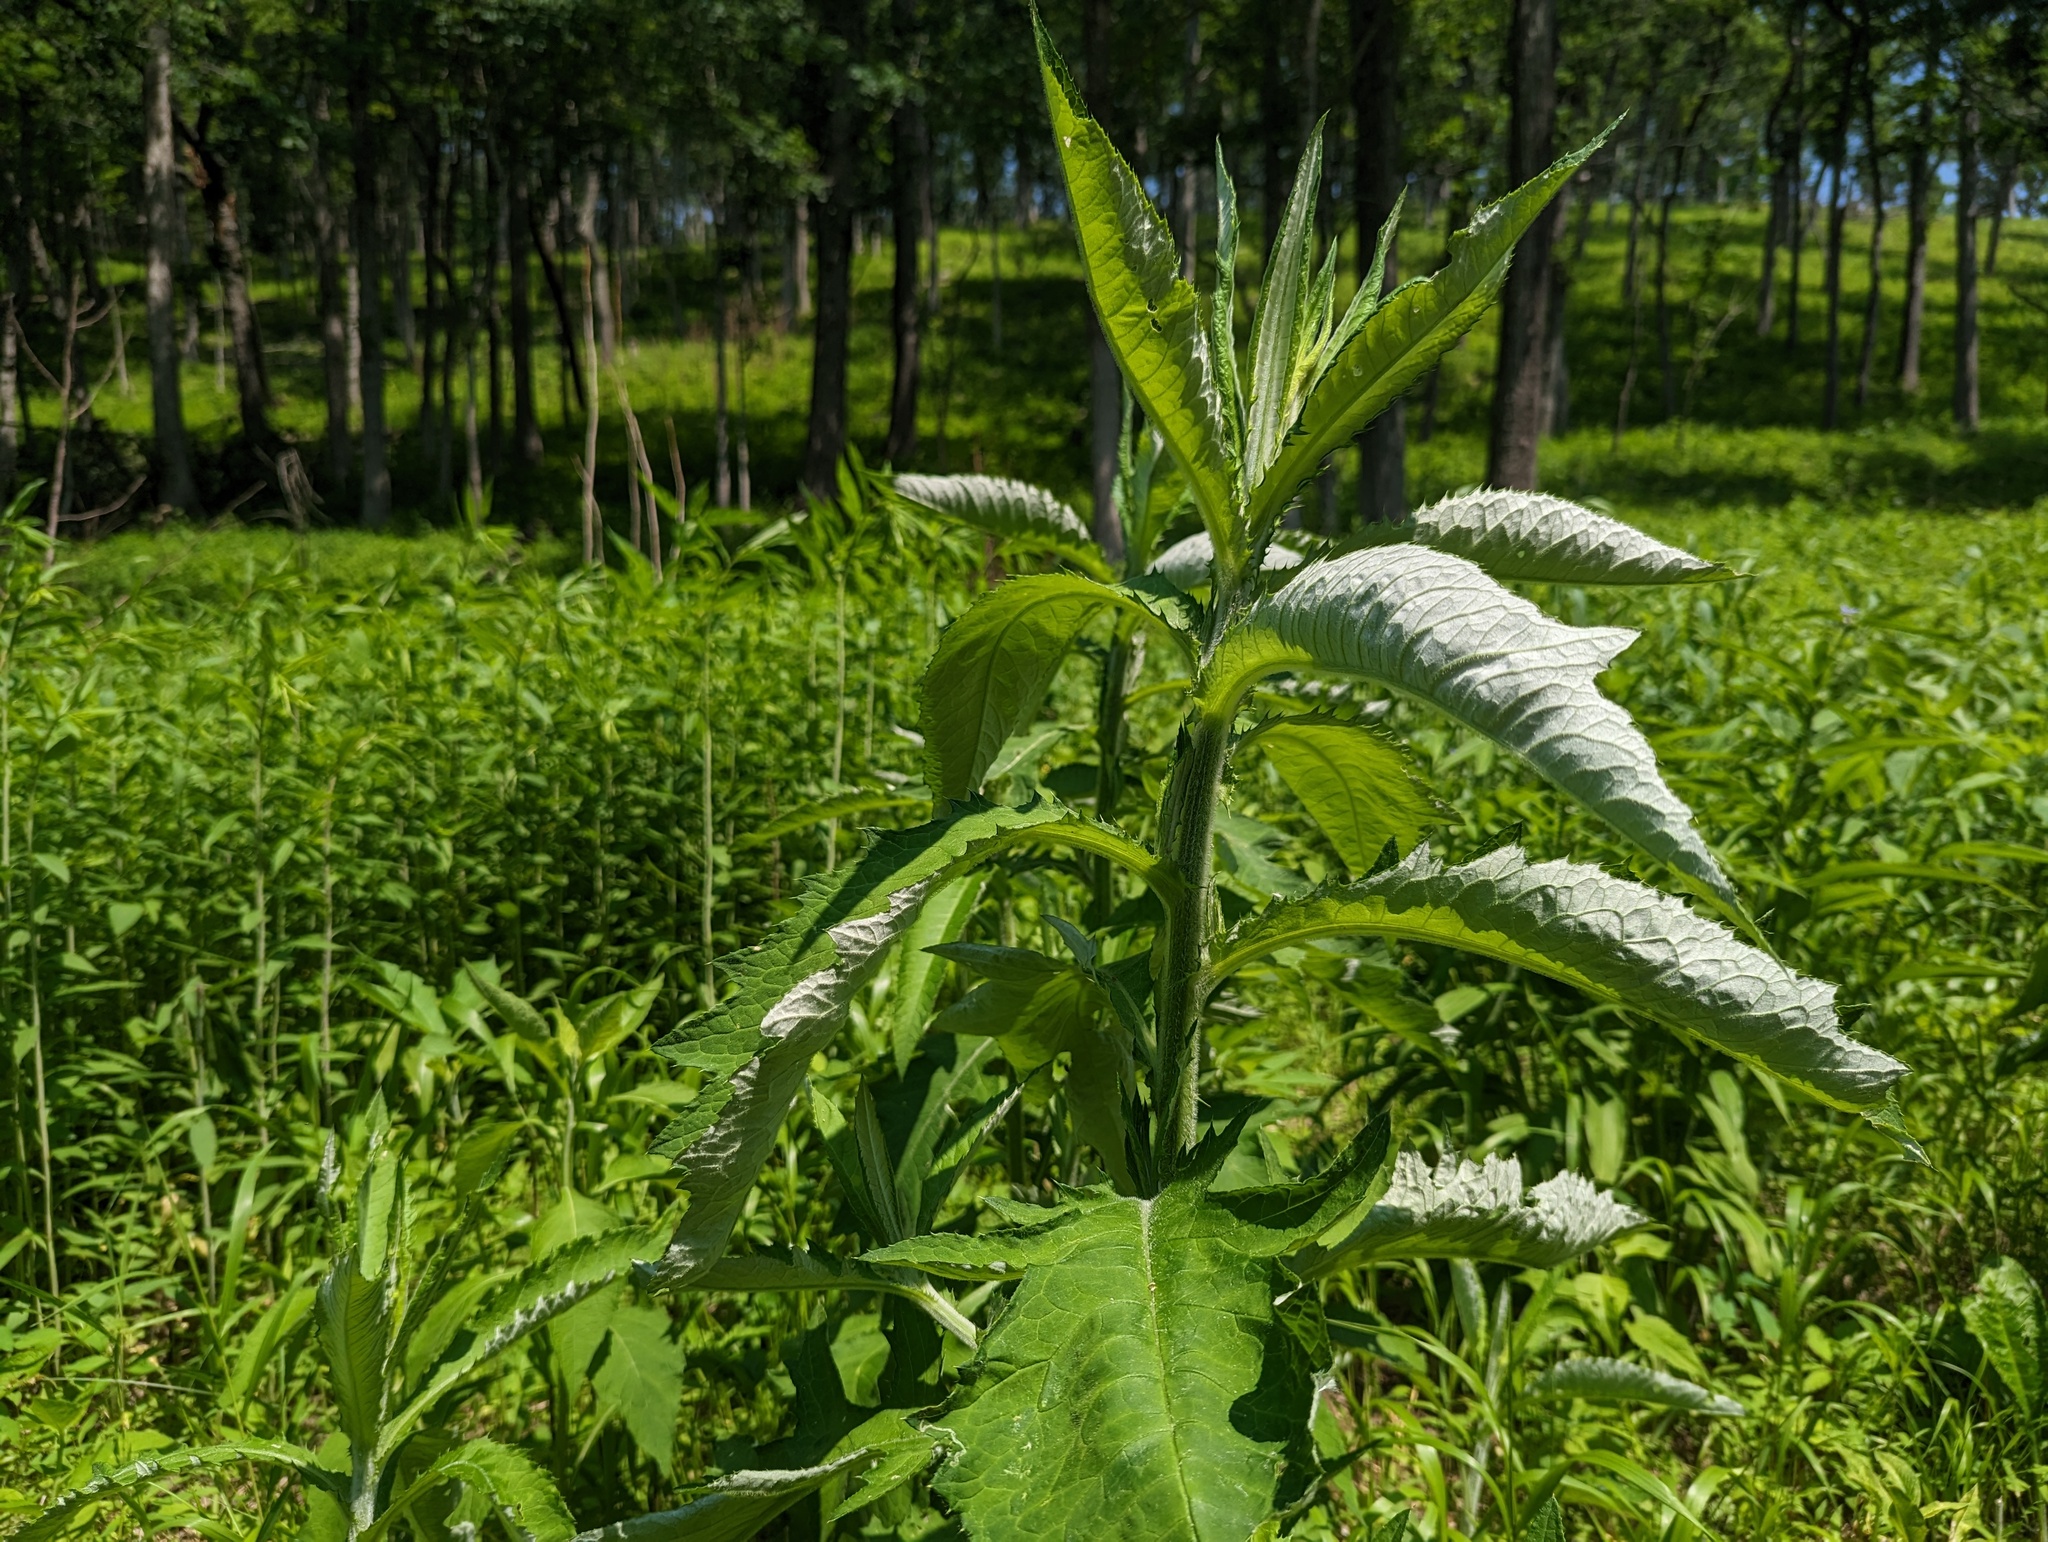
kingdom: Plantae
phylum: Tracheophyta
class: Magnoliopsida
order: Asterales
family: Asteraceae
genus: Cirsium
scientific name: Cirsium altissimum
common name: Roadside thistle
